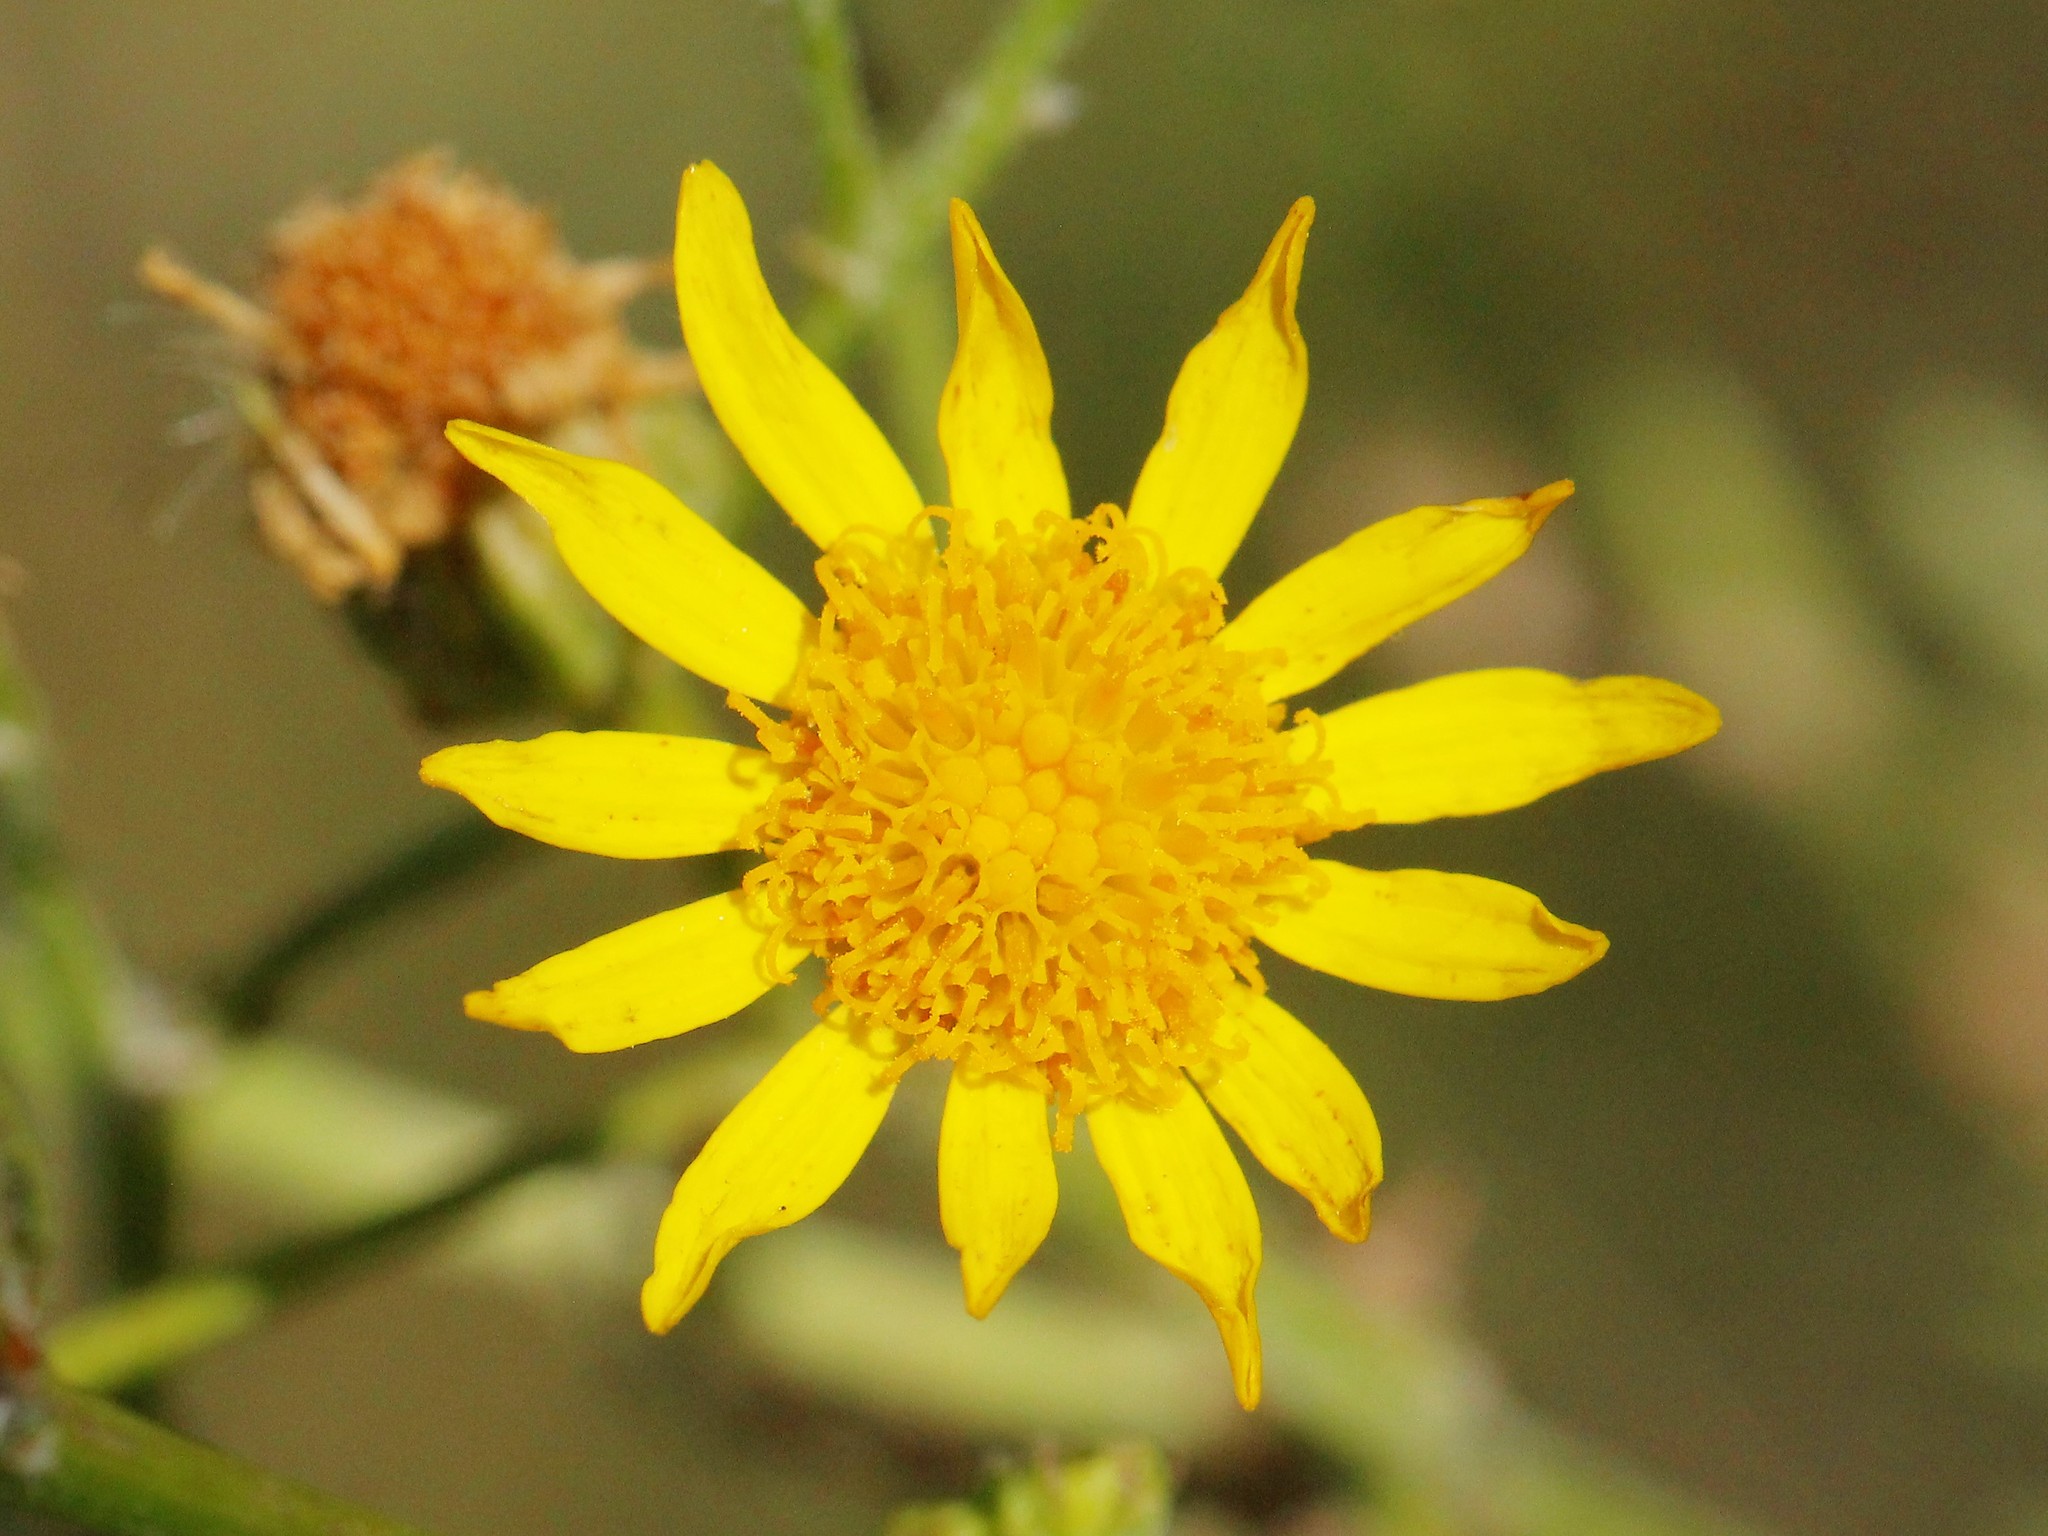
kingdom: Plantae
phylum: Tracheophyta
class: Magnoliopsida
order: Asterales
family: Asteraceae
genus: Jacobaea
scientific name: Jacobaea vulgaris
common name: Stinking willie
